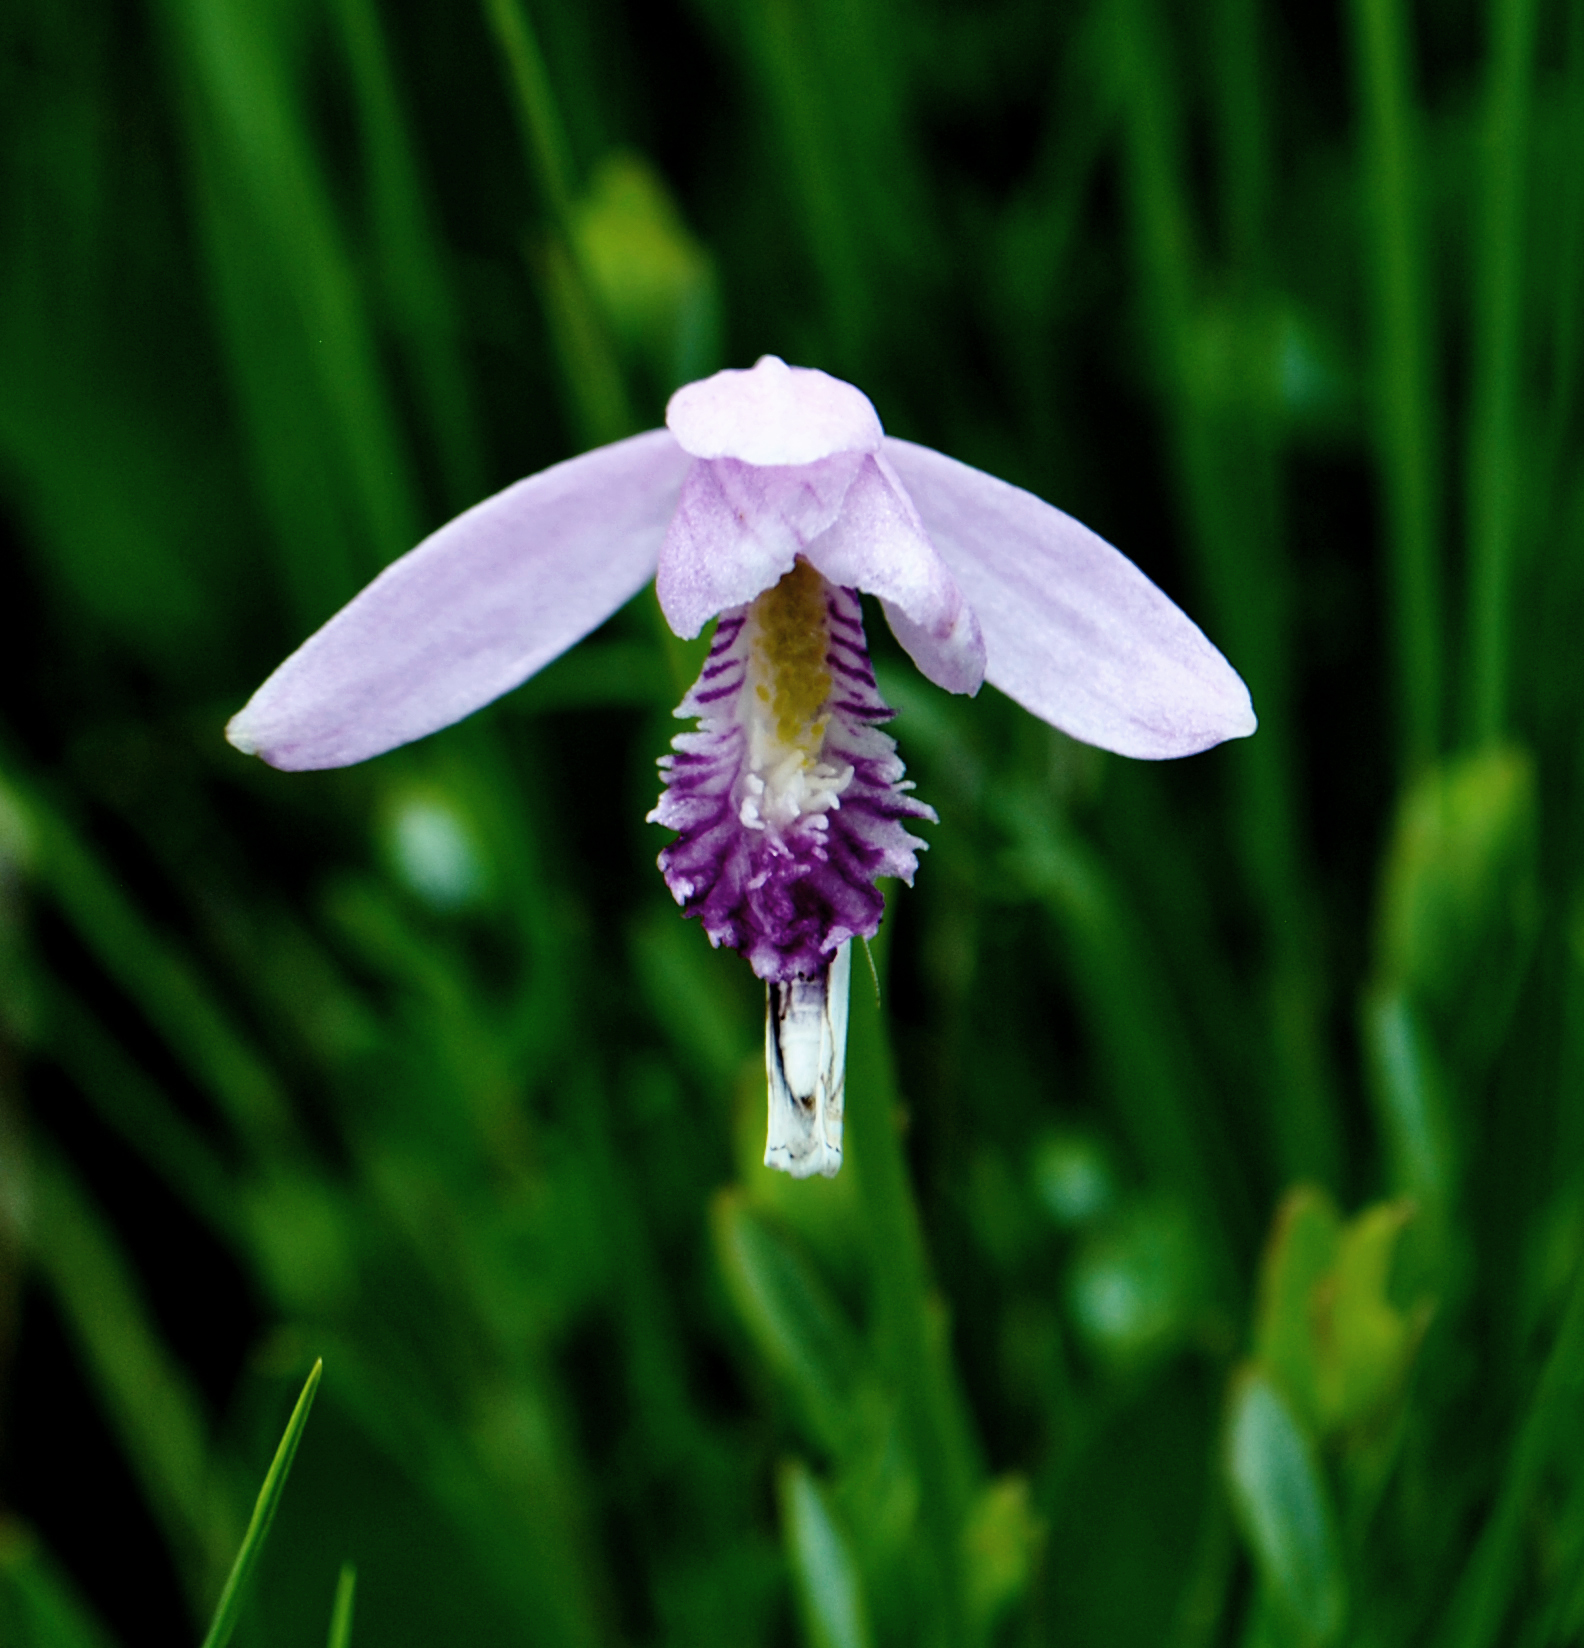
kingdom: Plantae
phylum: Tracheophyta
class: Liliopsida
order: Asparagales
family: Orchidaceae
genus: Pogonia
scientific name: Pogonia ophioglossoides
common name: Rose pogonia
